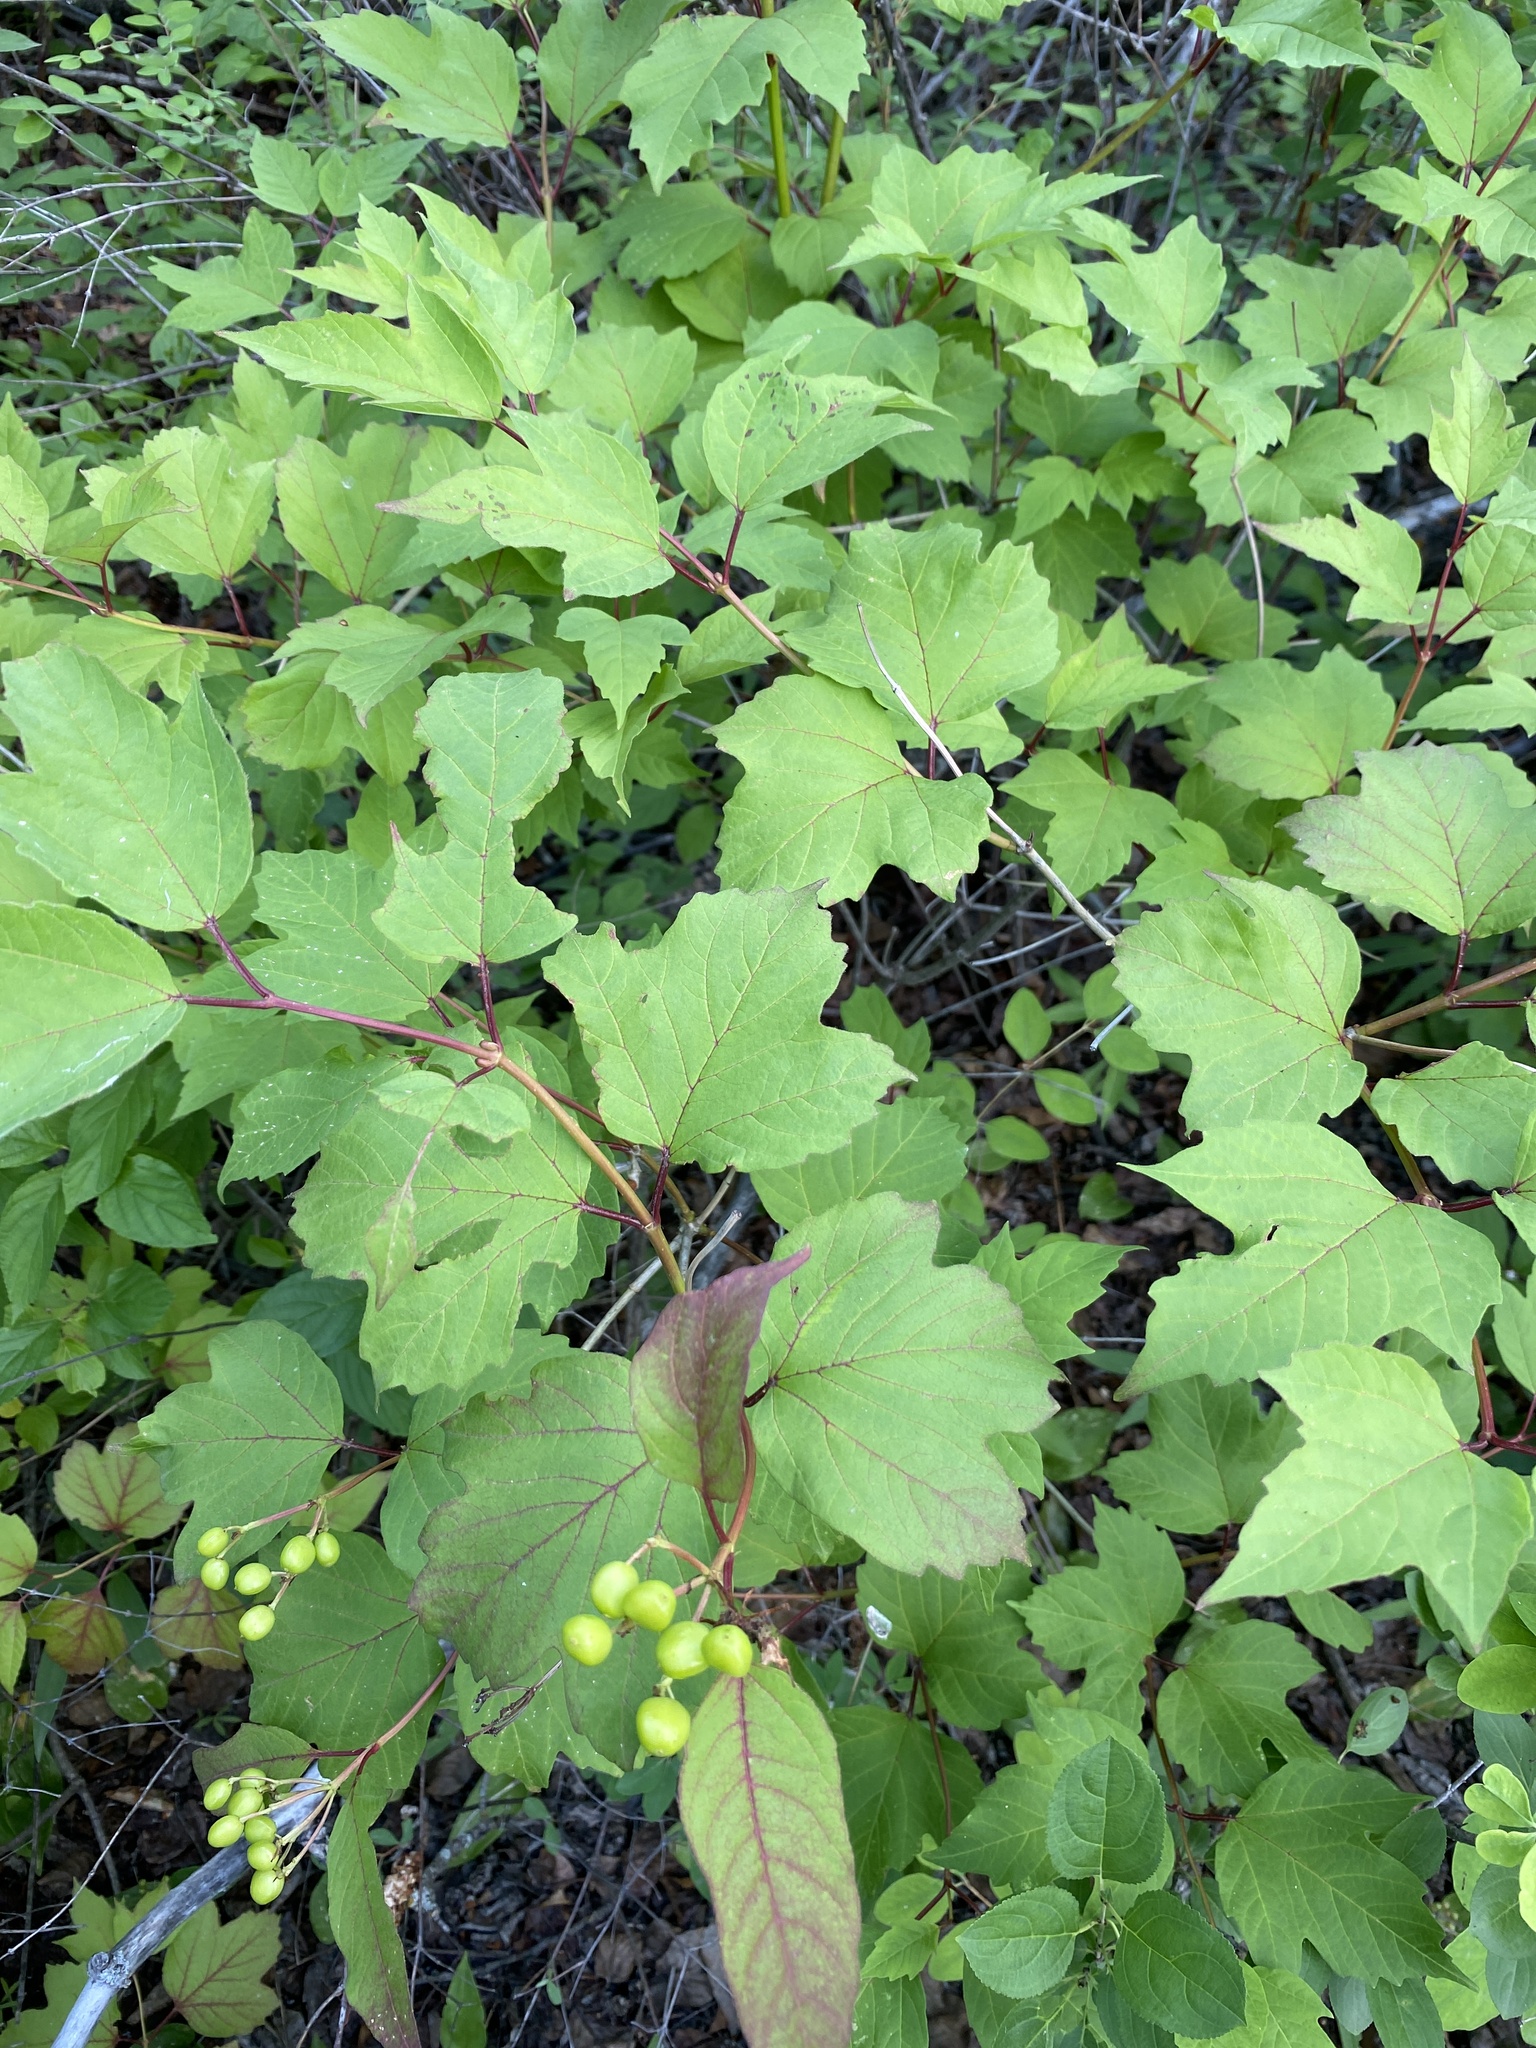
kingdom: Plantae
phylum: Tracheophyta
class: Magnoliopsida
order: Dipsacales
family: Viburnaceae
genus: Viburnum
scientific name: Viburnum opulus
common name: Guelder-rose
